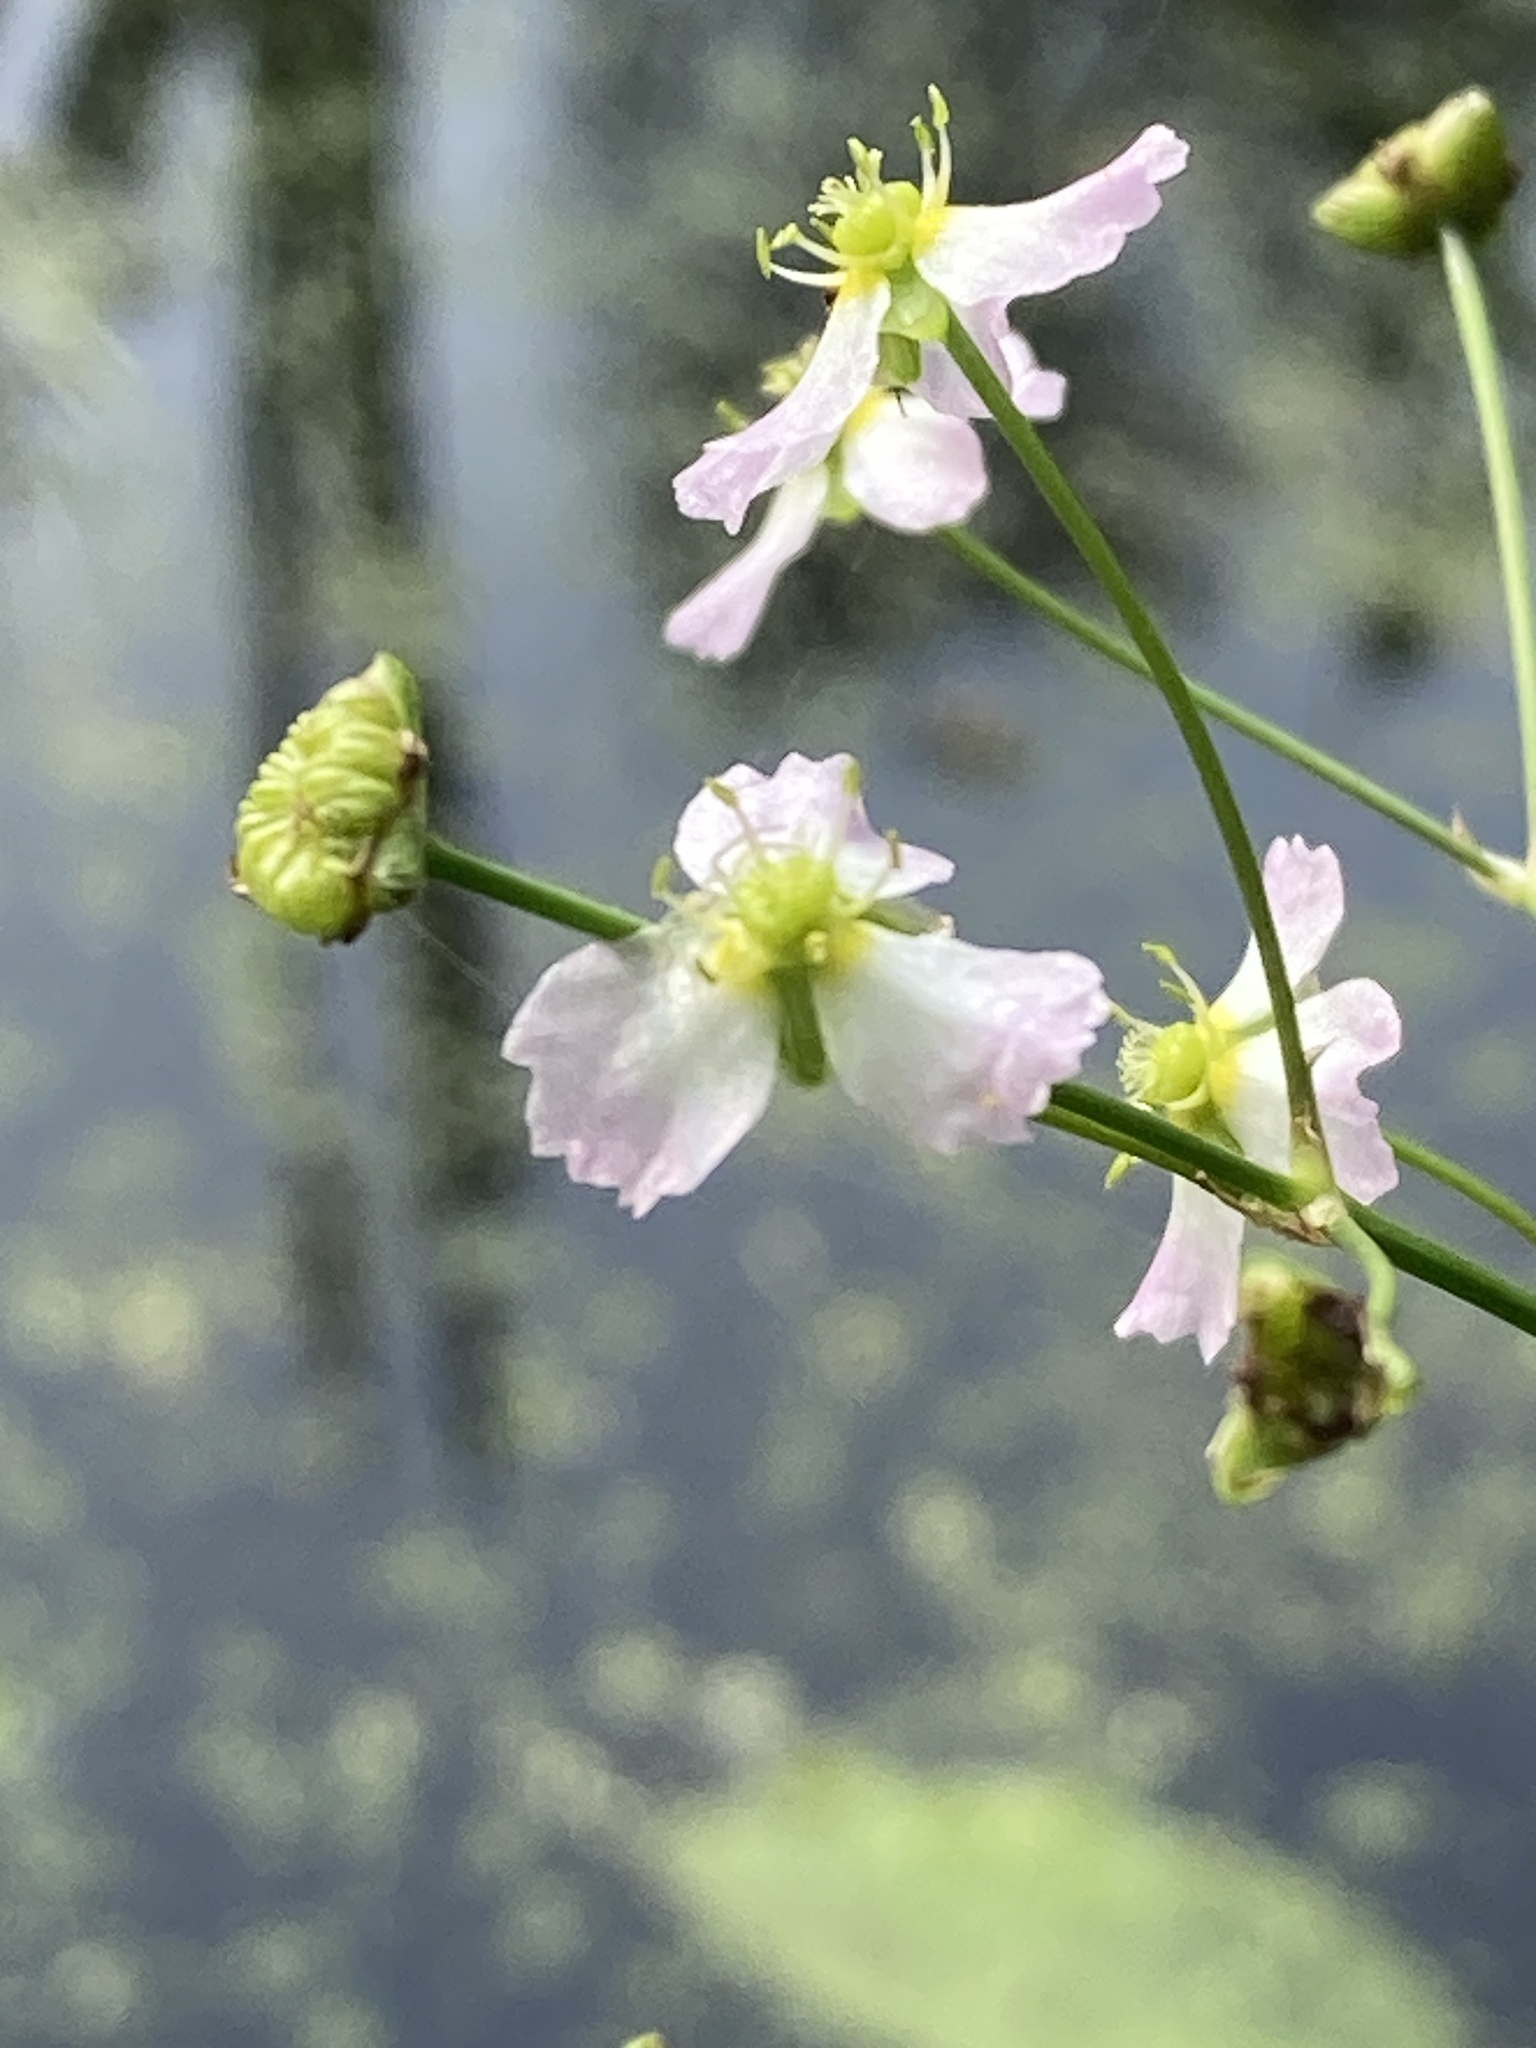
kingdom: Plantae
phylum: Tracheophyta
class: Liliopsida
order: Alismatales
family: Alismataceae
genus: Alisma
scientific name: Alisma plantago-aquatica
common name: Water-plantain
